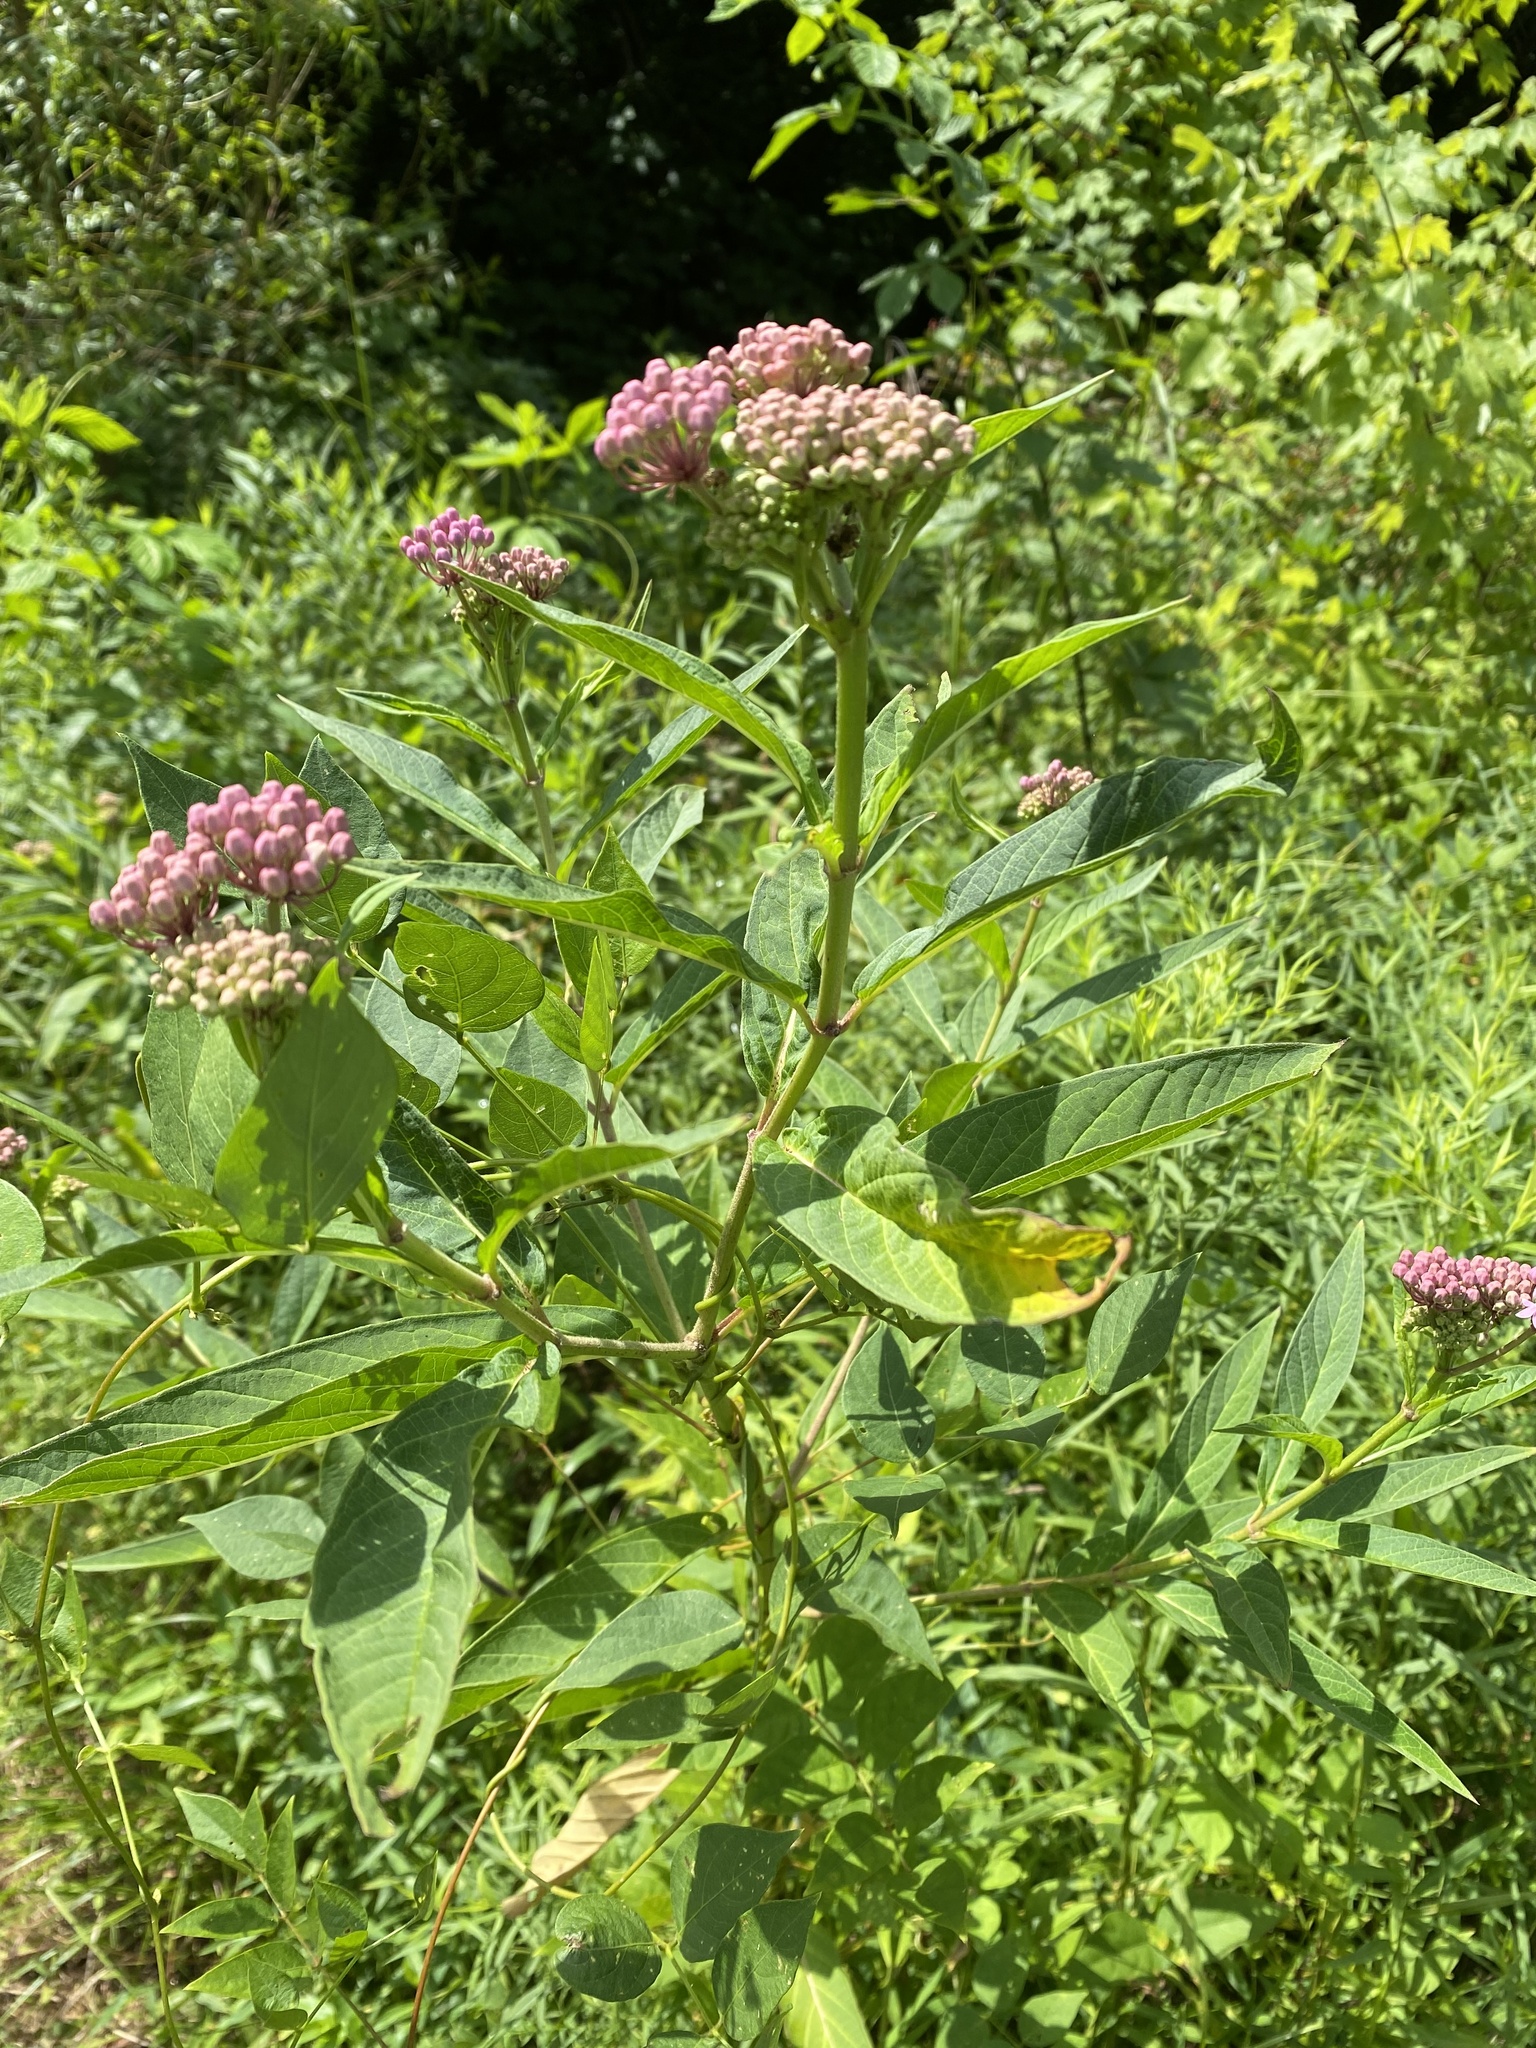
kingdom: Plantae
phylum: Tracheophyta
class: Magnoliopsida
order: Gentianales
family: Apocynaceae
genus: Asclepias
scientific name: Asclepias incarnata
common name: Swamp milkweed
